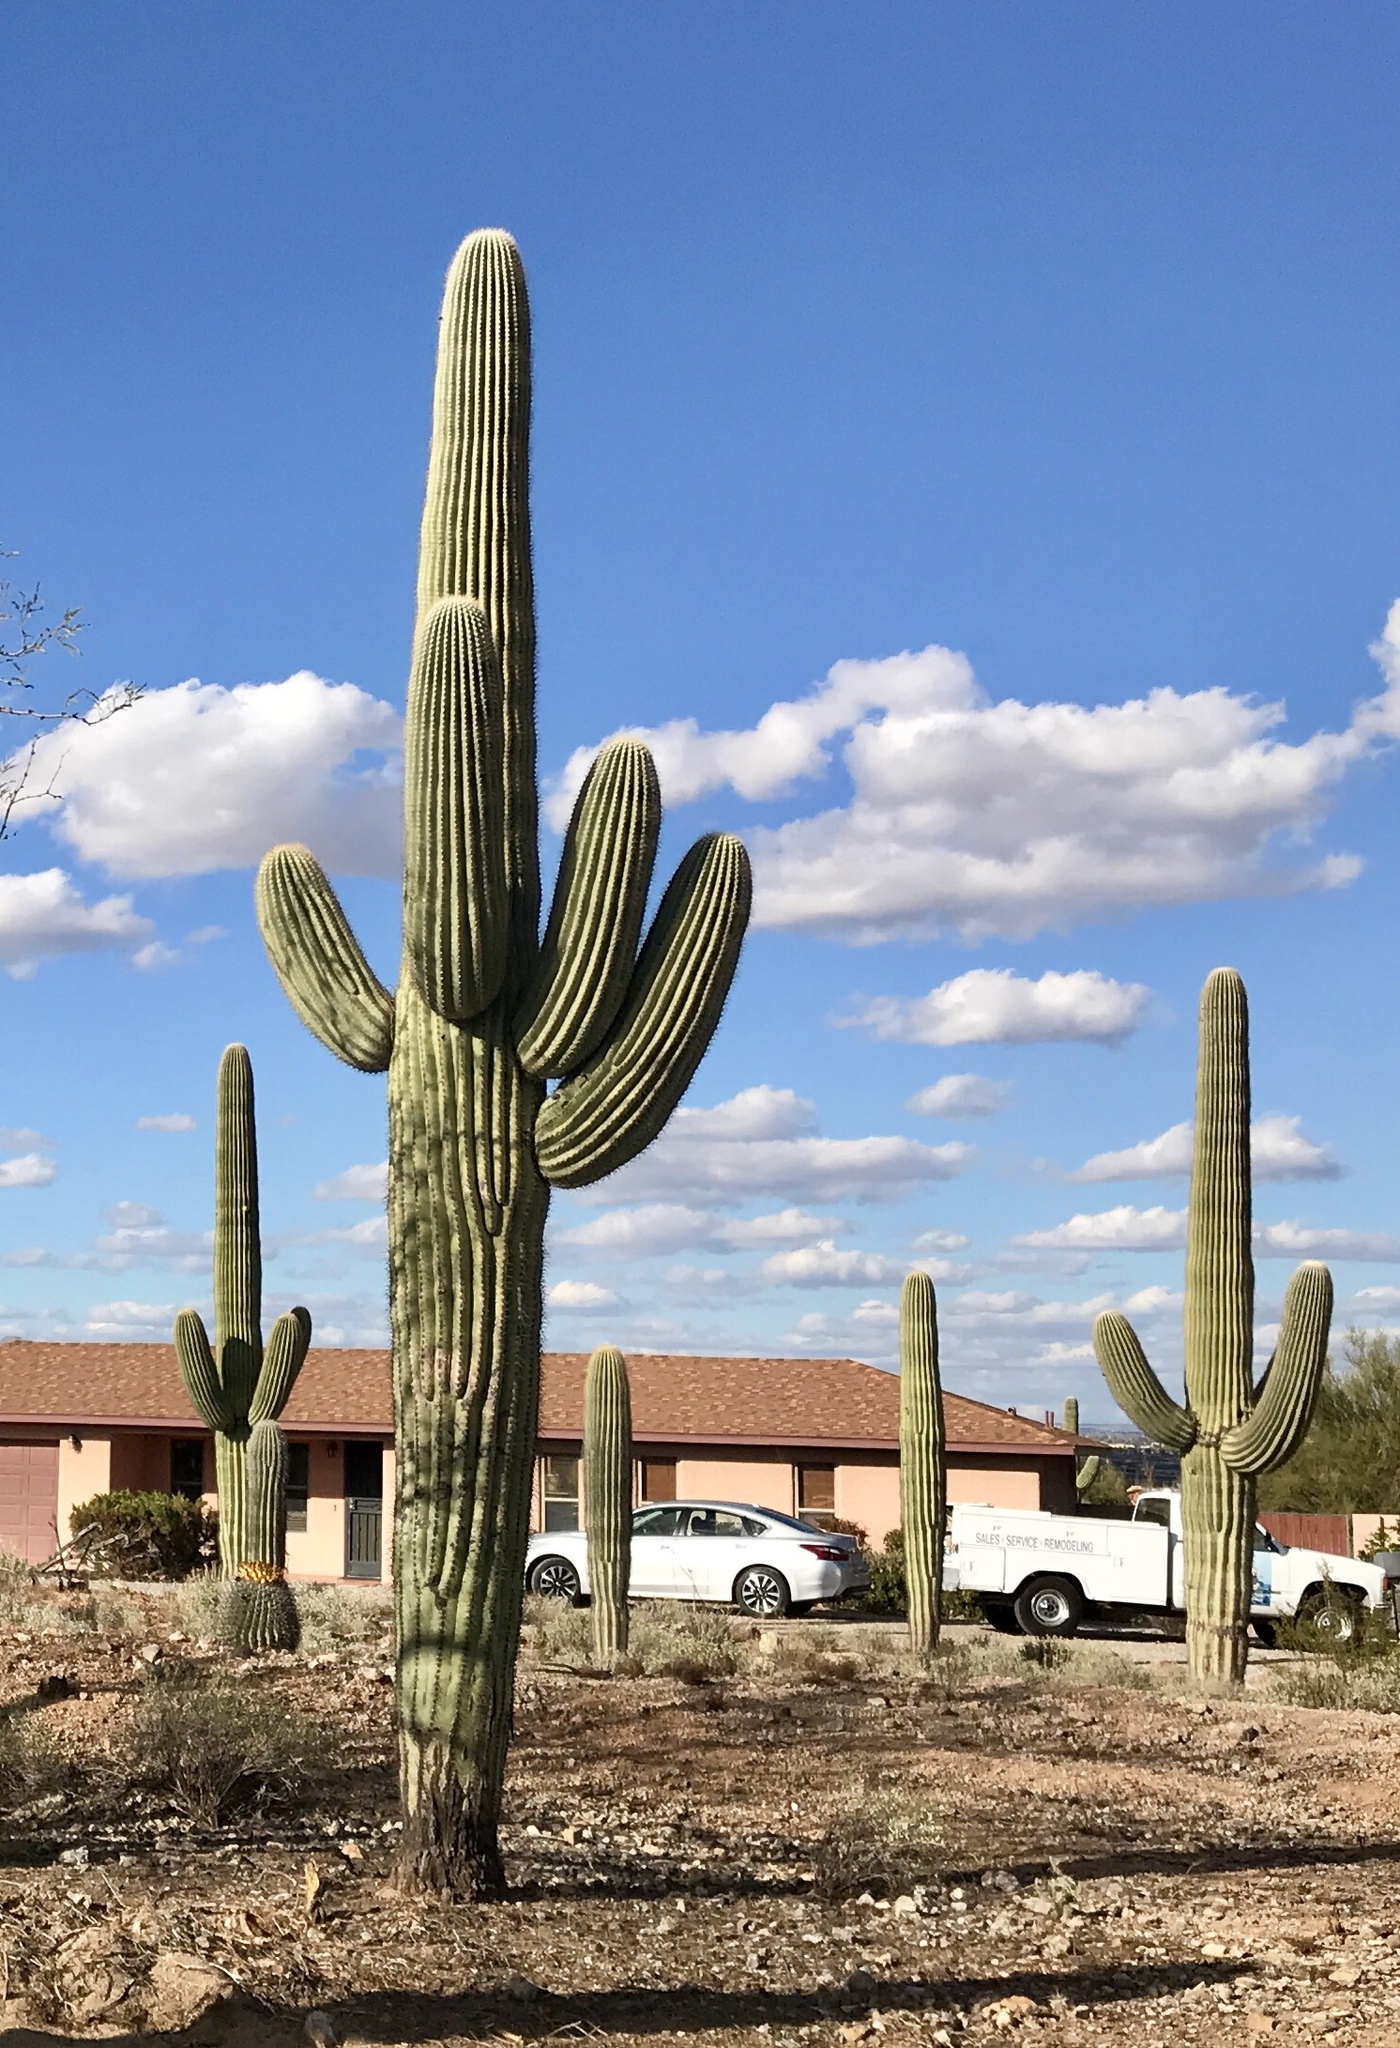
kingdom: Plantae
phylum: Tracheophyta
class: Magnoliopsida
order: Caryophyllales
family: Cactaceae
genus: Carnegiea
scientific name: Carnegiea gigantea
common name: Saguaro
